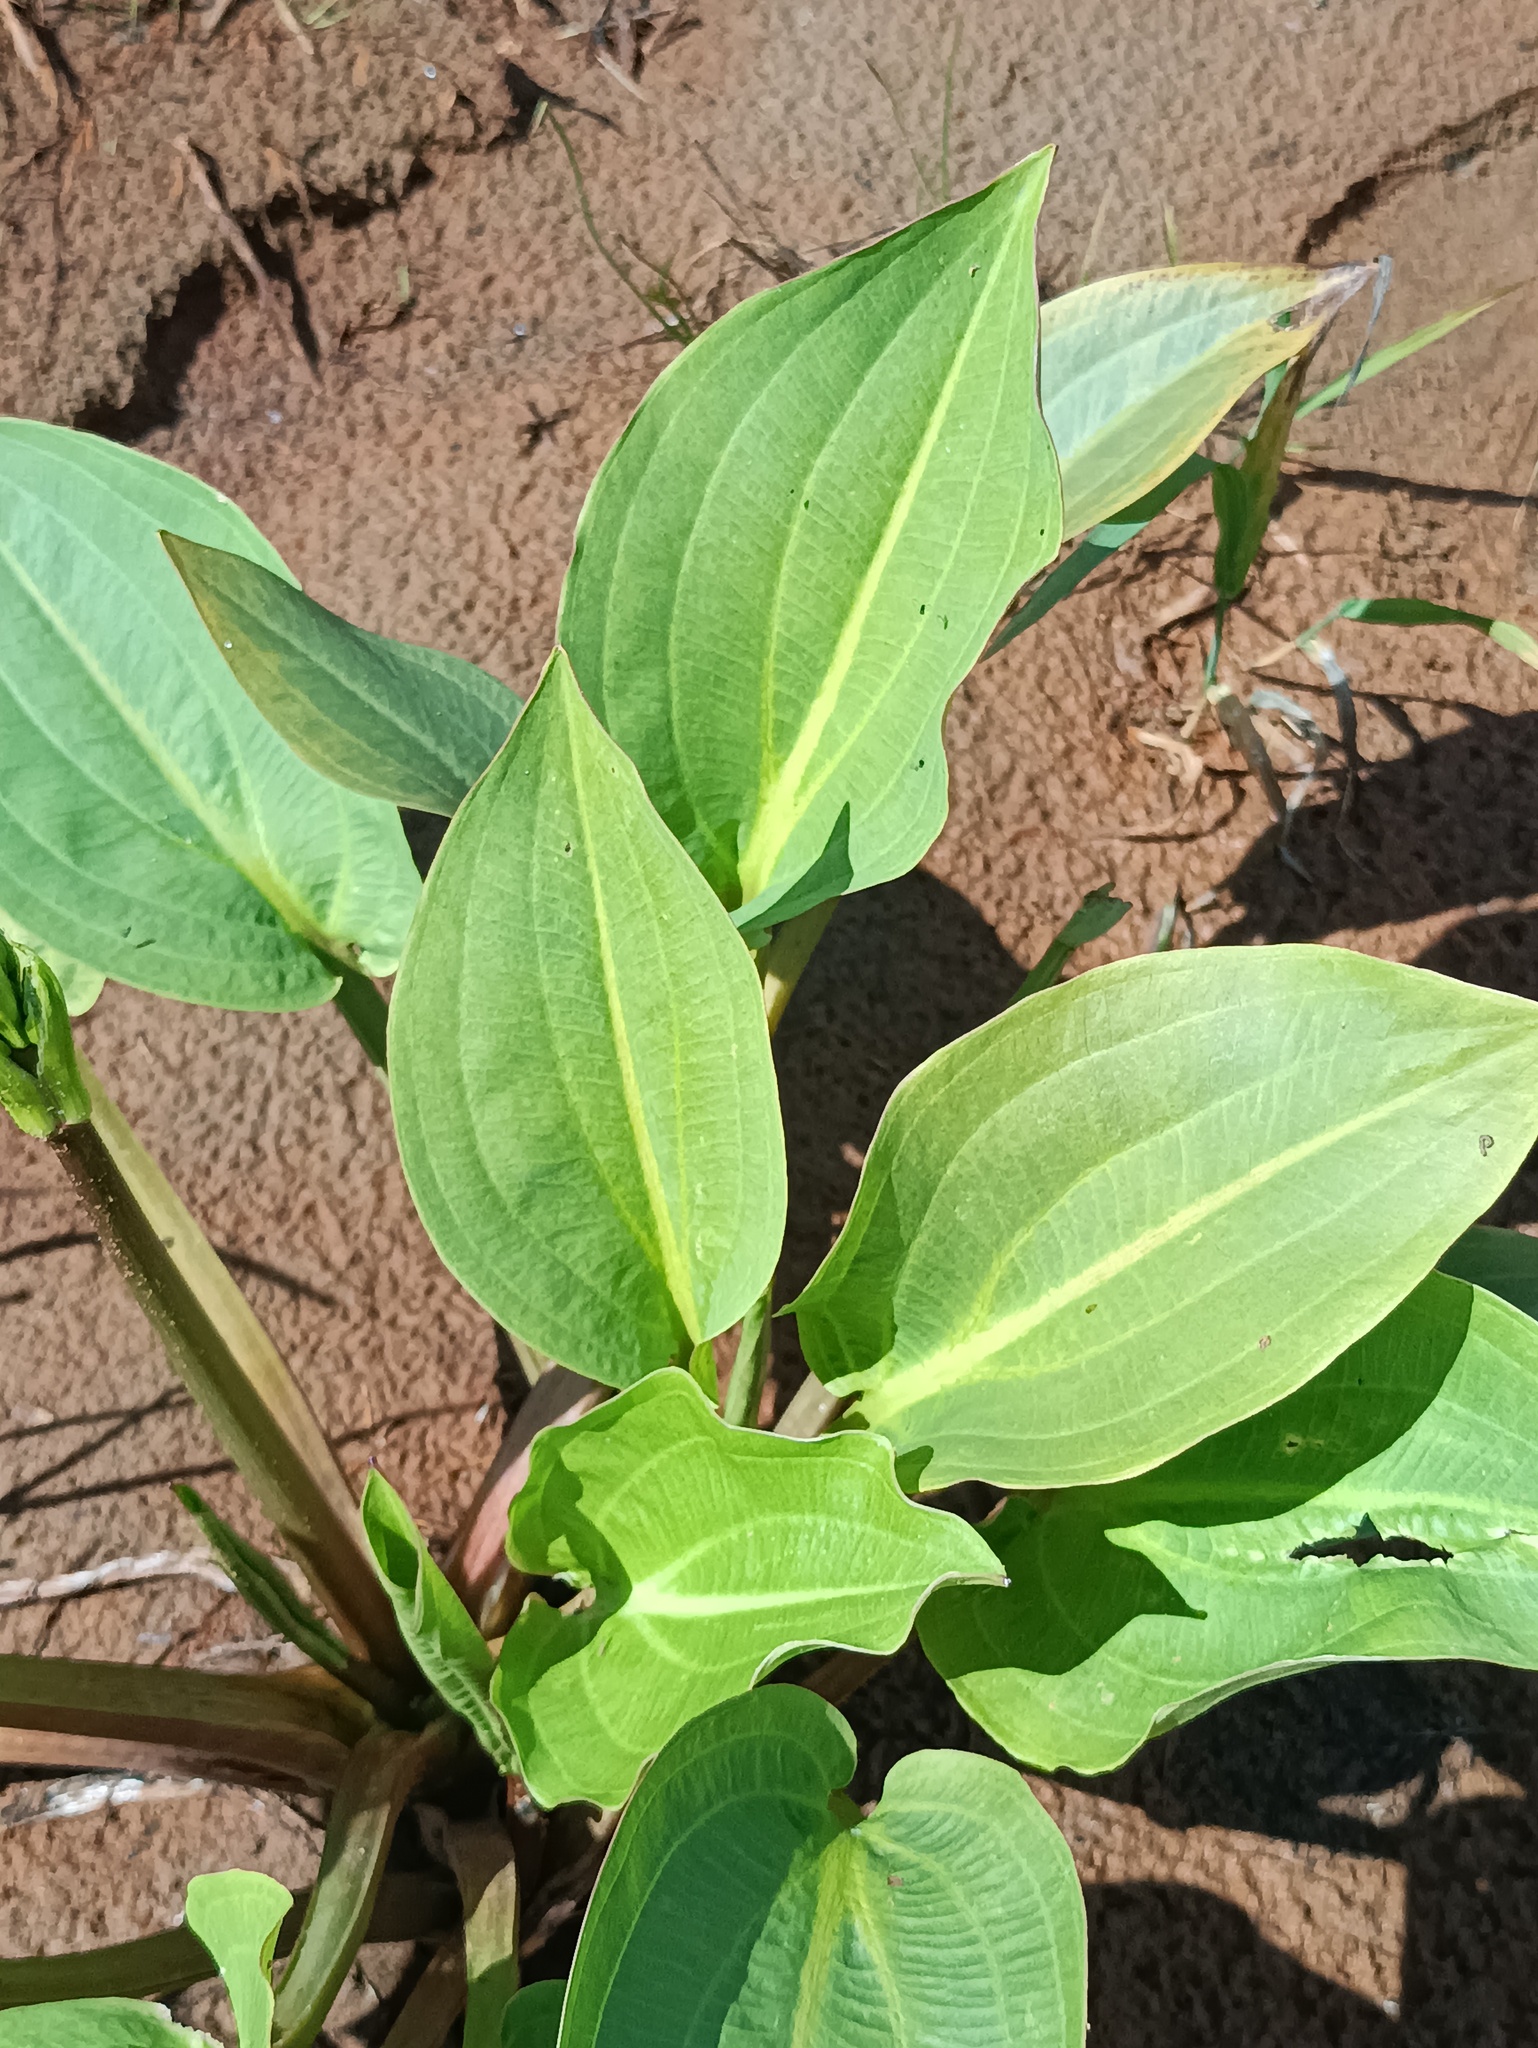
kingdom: Plantae
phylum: Tracheophyta
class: Liliopsida
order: Alismatales
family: Alismataceae
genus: Alisma
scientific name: Alisma plantago-aquatica
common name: Water-plantain
